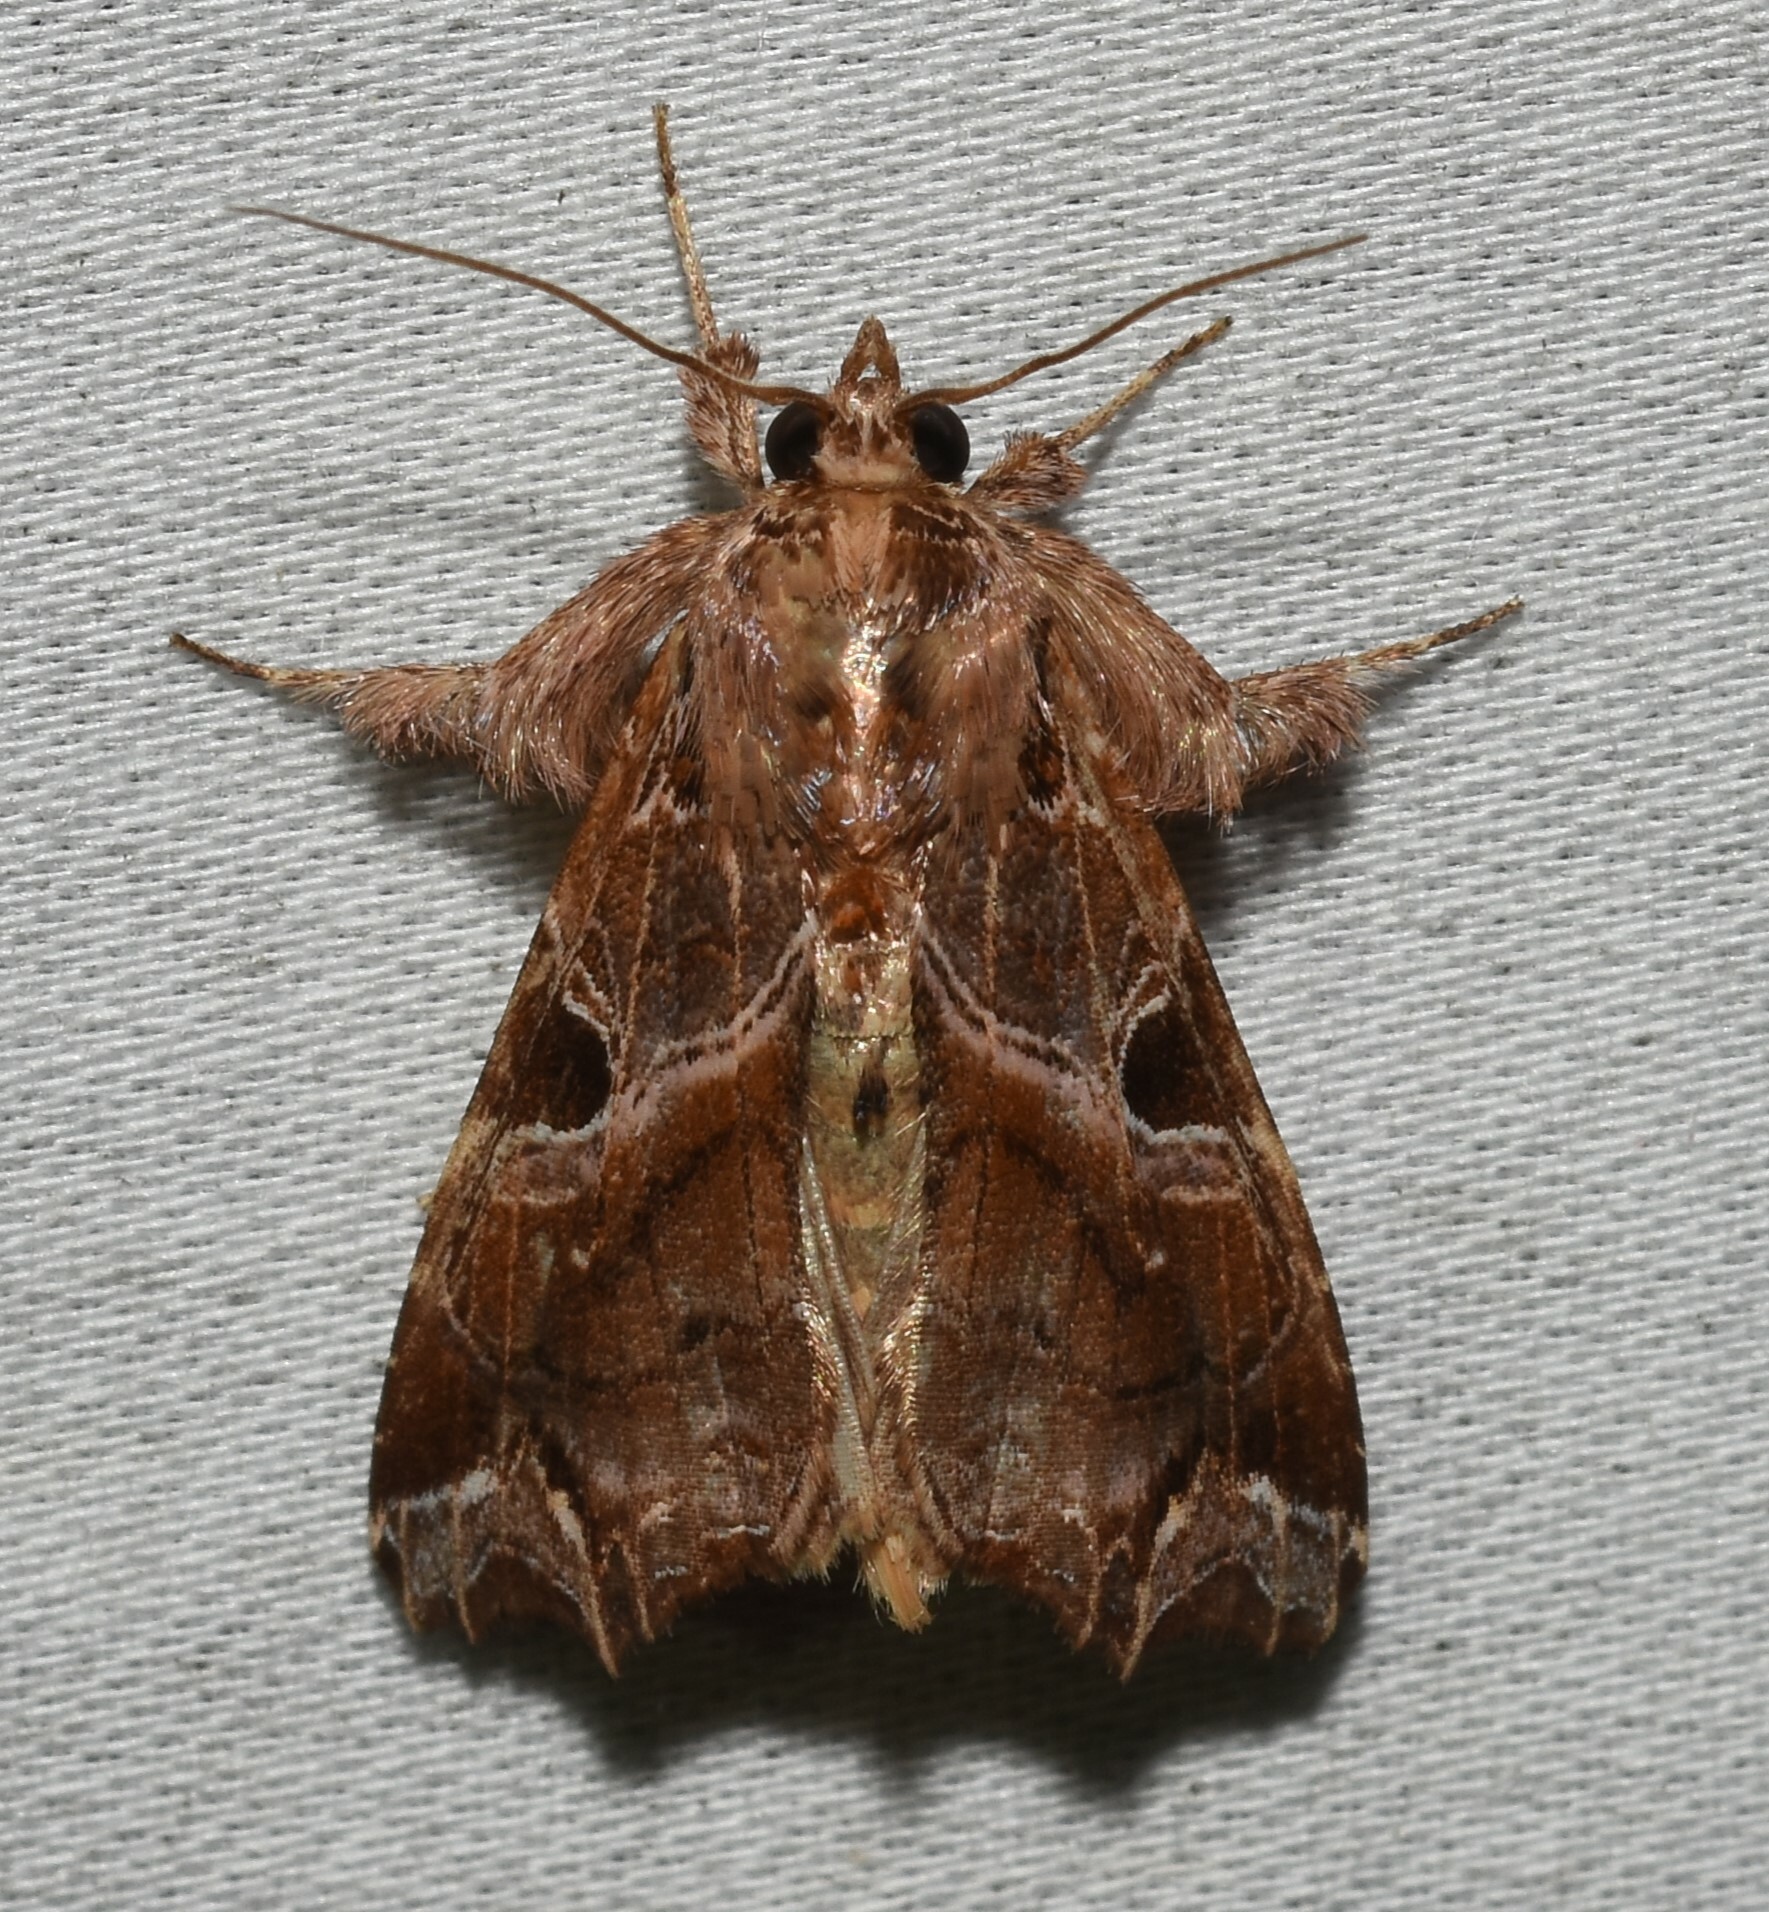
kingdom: Animalia
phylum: Arthropoda
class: Insecta
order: Lepidoptera
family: Noctuidae
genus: Callopistria
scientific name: Callopistria floridensis
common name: Florida fern moth
